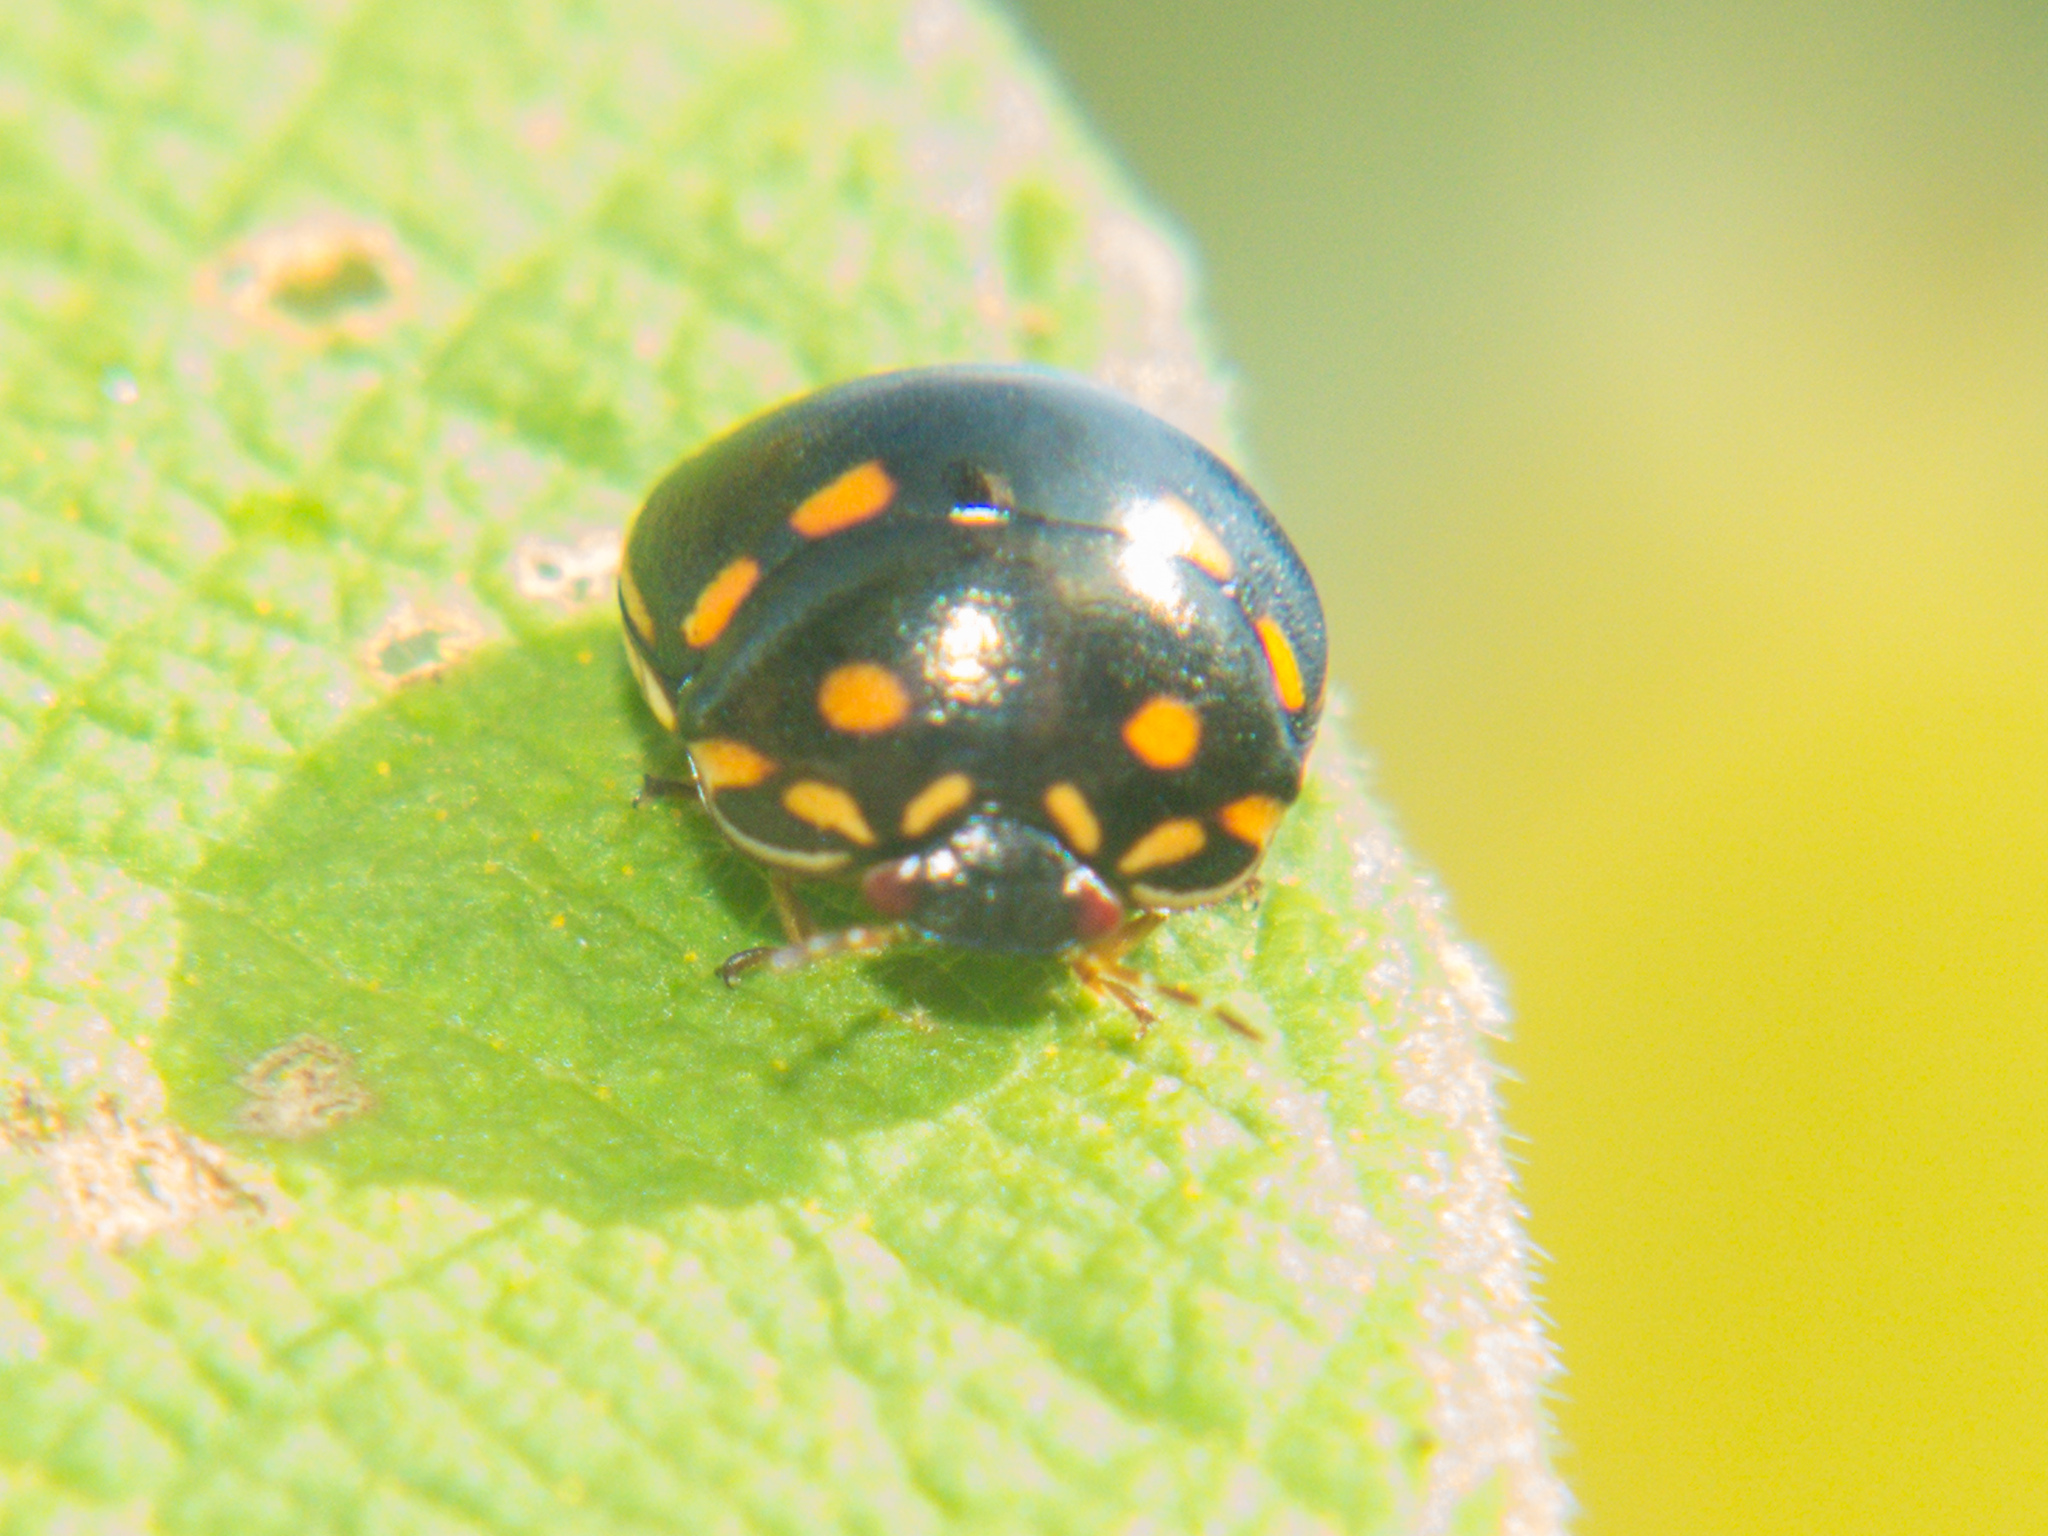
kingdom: Animalia
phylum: Arthropoda
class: Insecta
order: Hemiptera
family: Plataspidae
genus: Paracopta
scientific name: Paracopta duodecimpunctata
